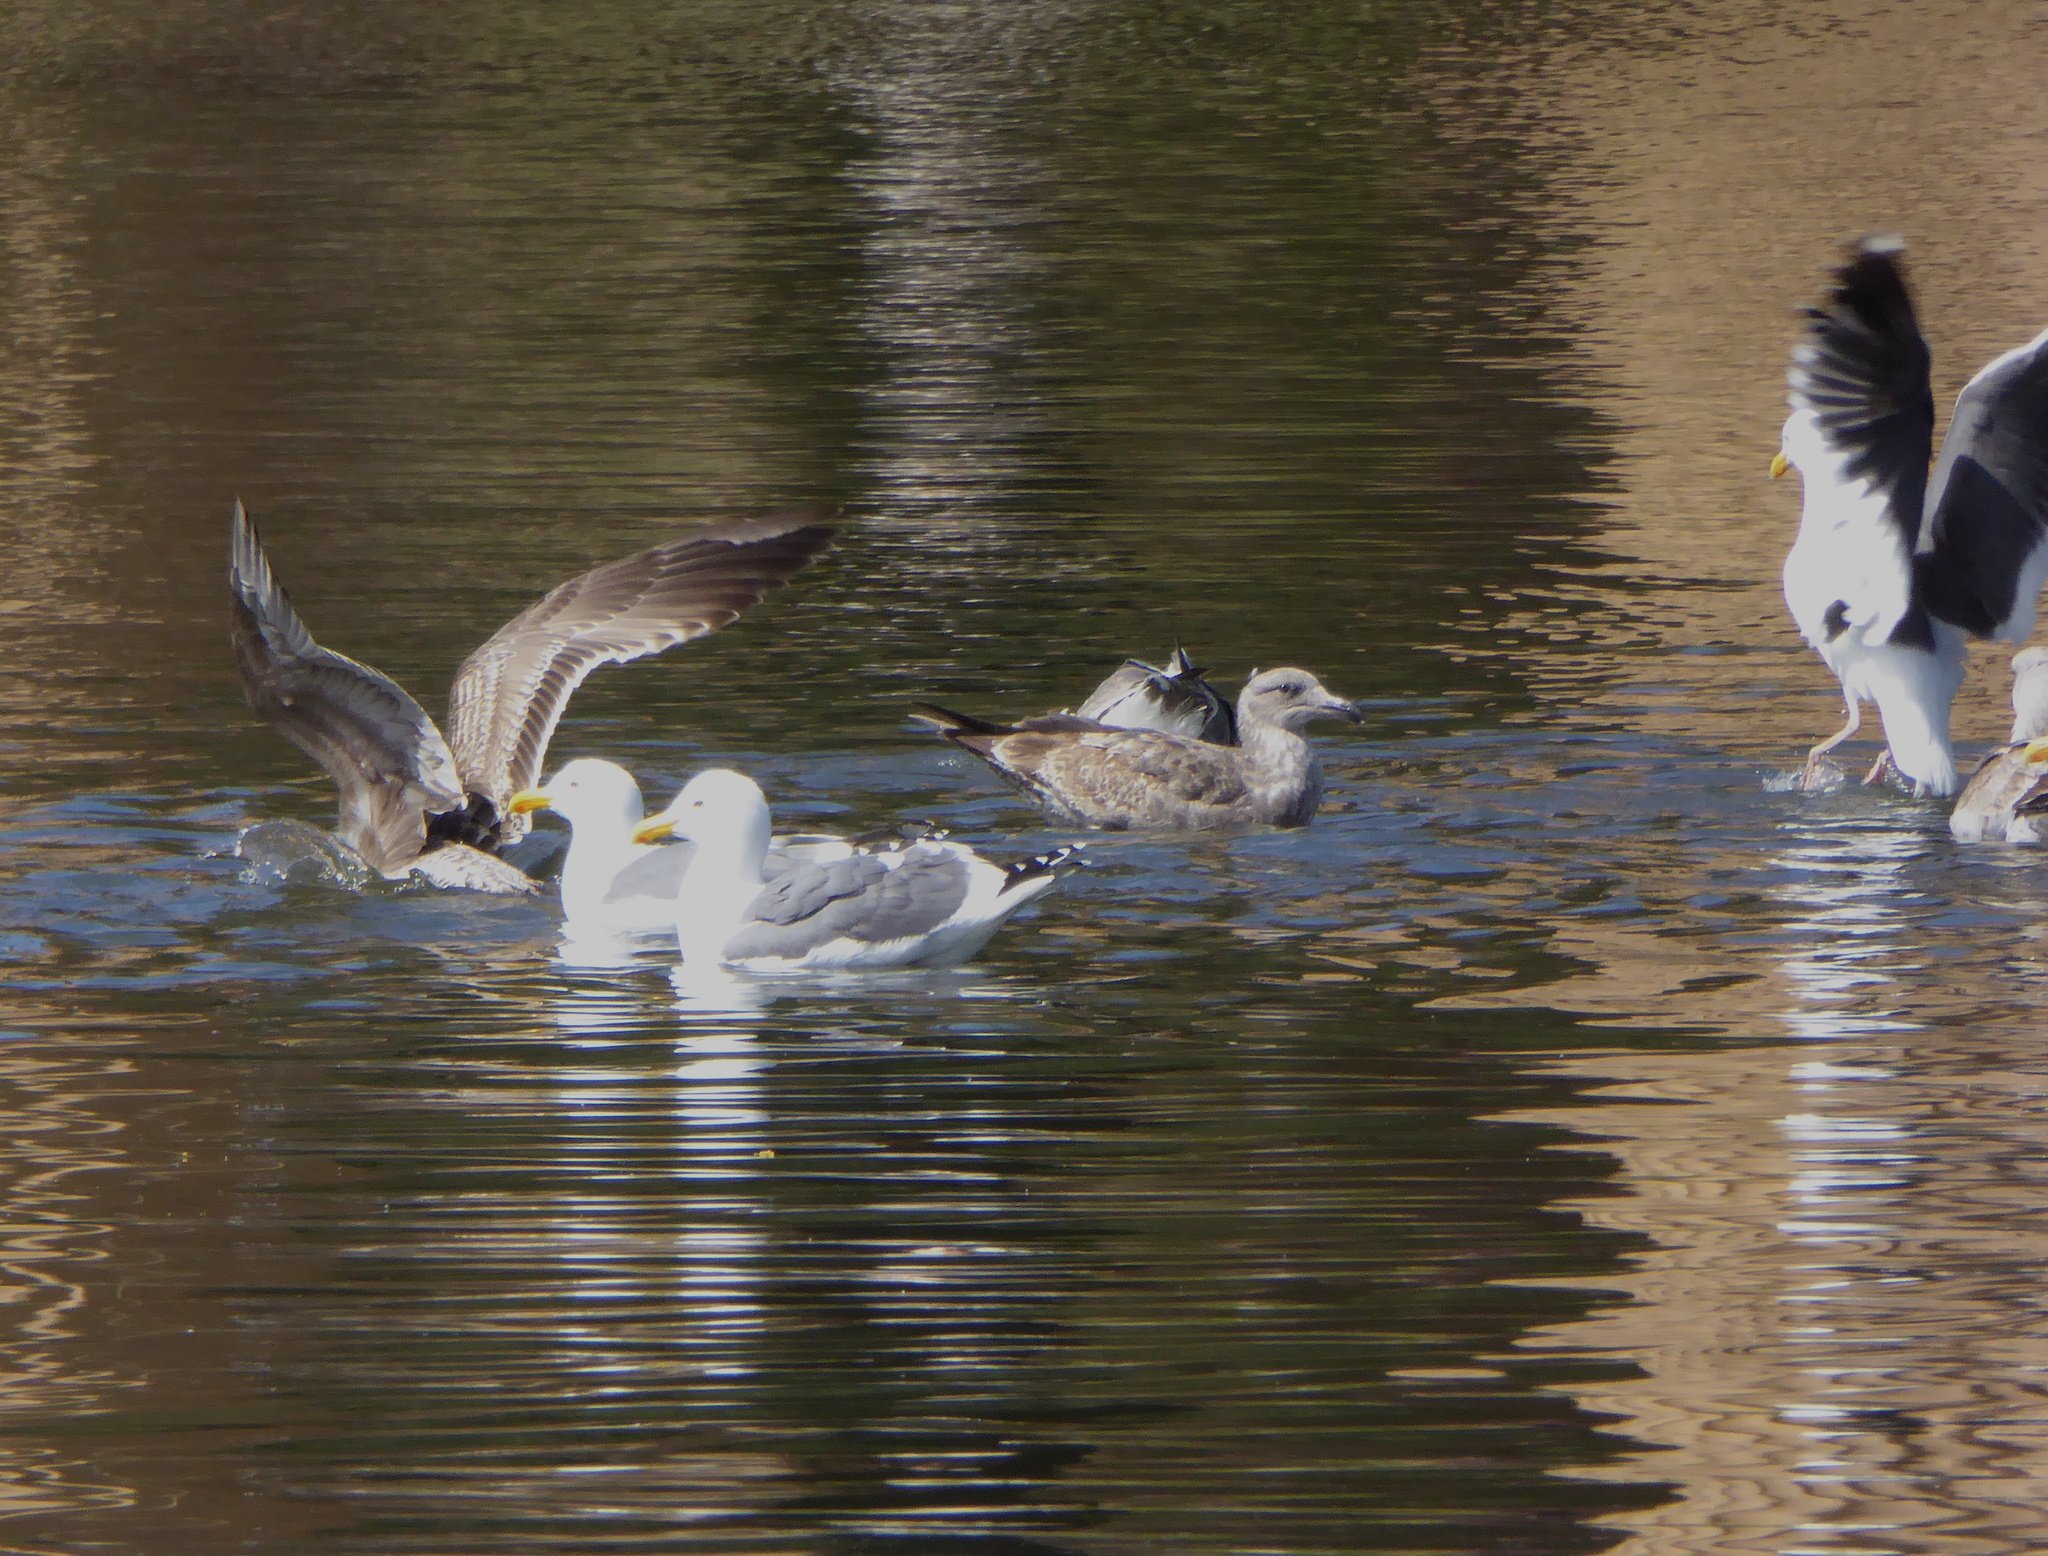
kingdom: Animalia
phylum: Chordata
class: Aves
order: Charadriiformes
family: Laridae
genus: Larus
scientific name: Larus occidentalis
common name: Western gull
